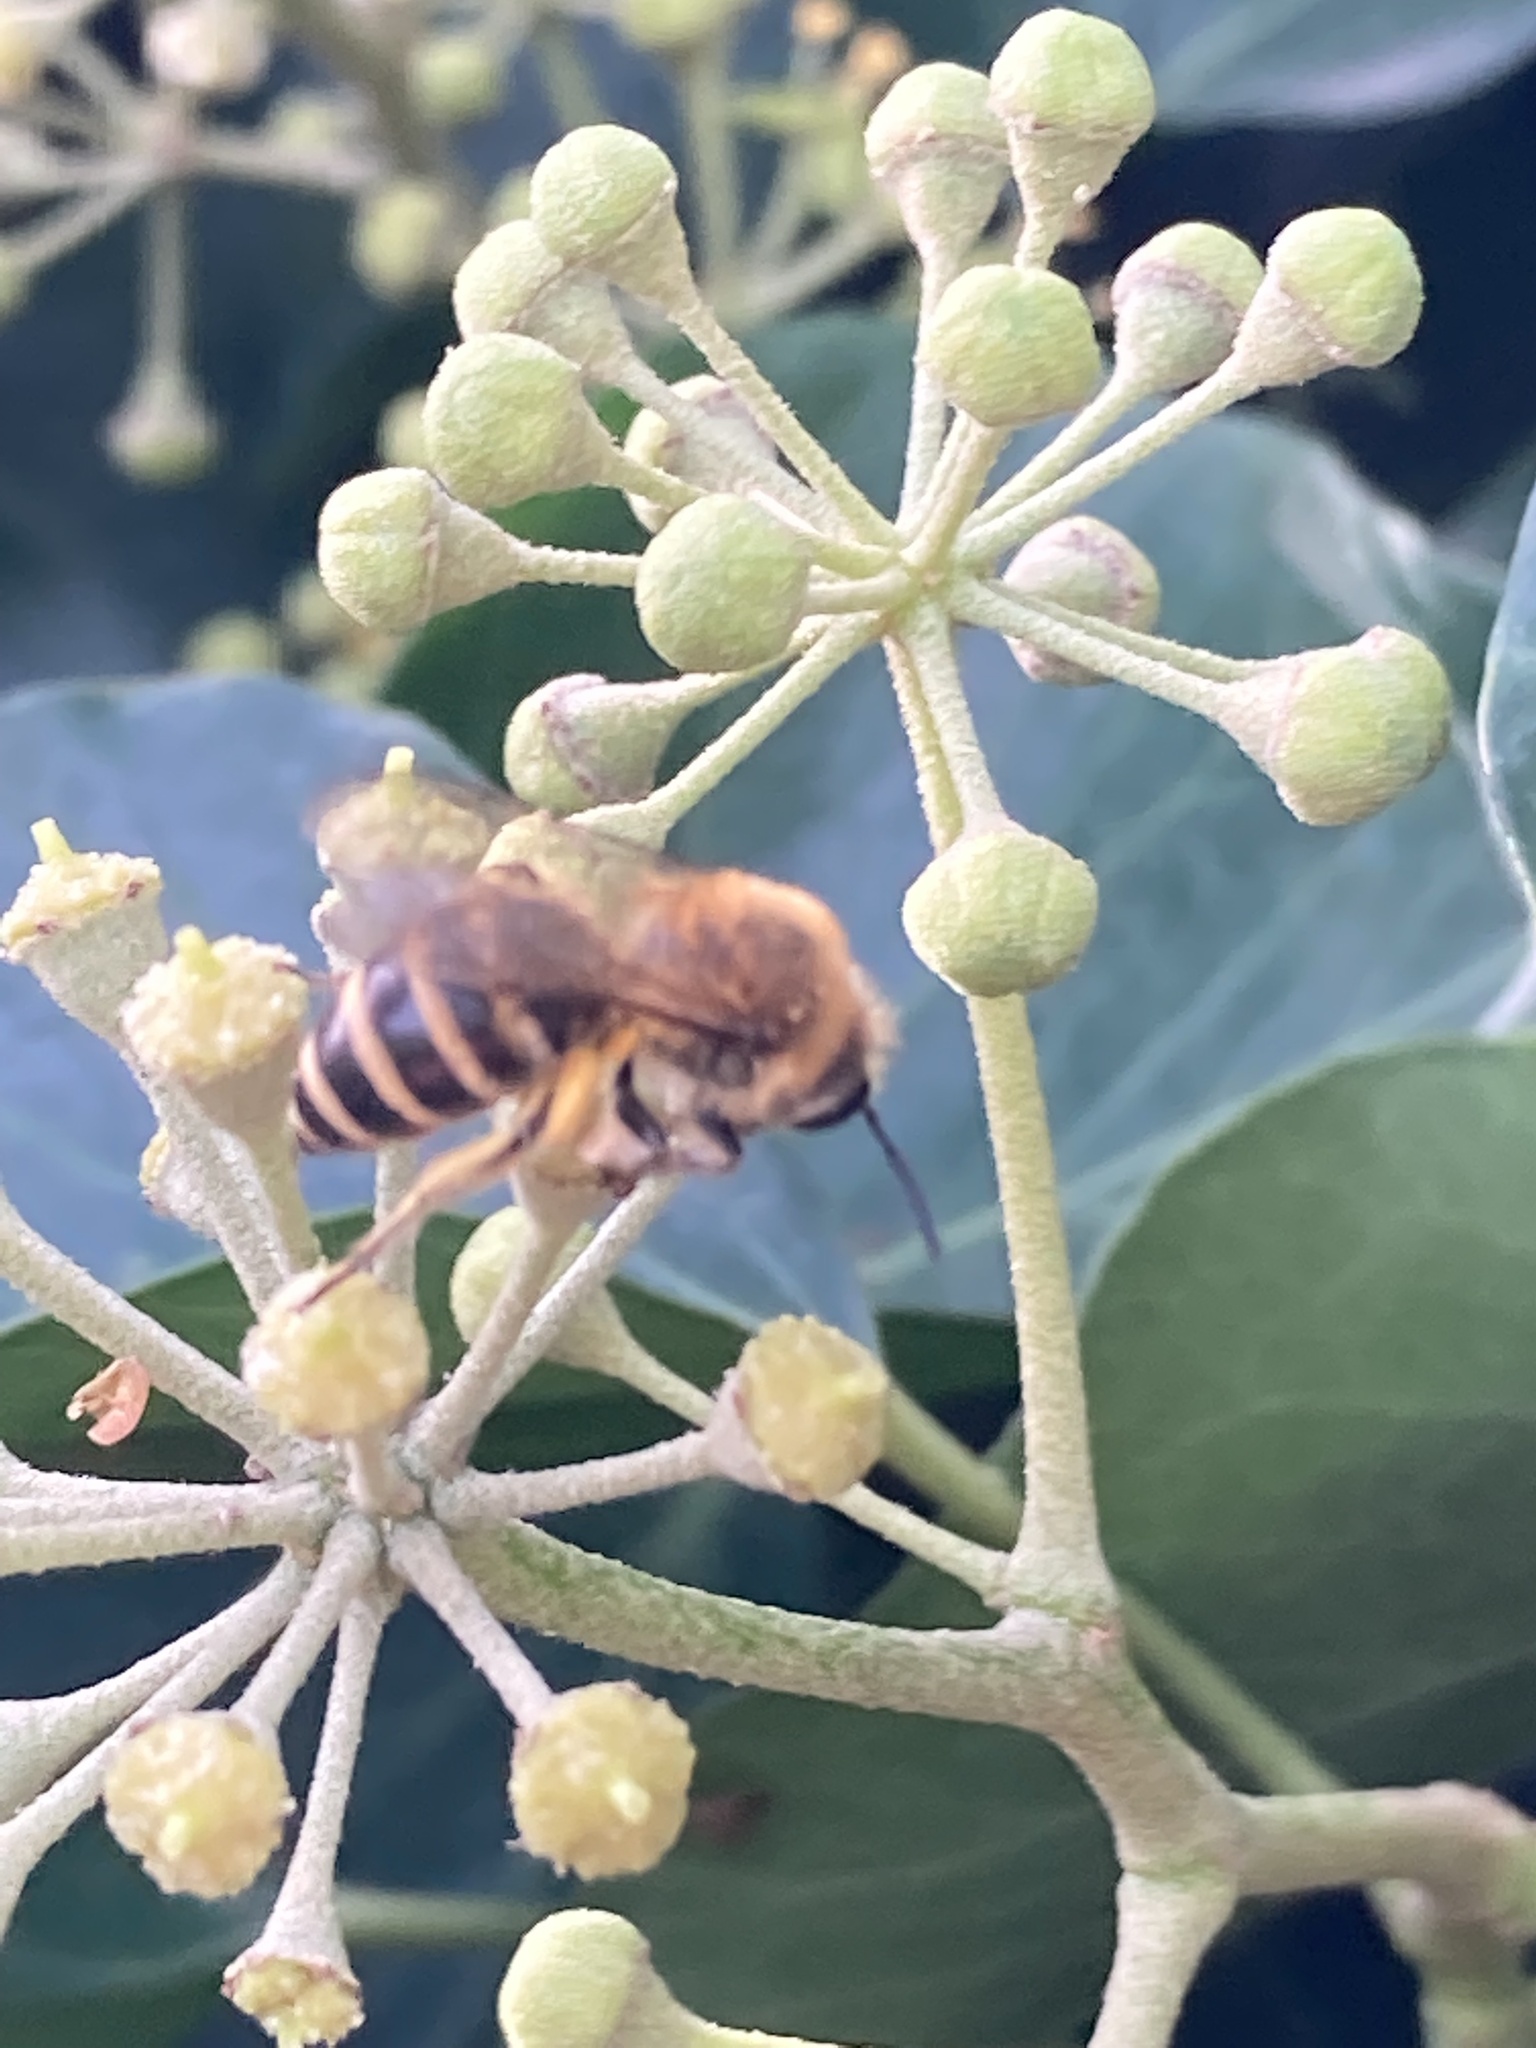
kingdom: Animalia
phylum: Arthropoda
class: Insecta
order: Hymenoptera
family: Colletidae
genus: Colletes
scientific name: Colletes hederae
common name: Ivy bee
